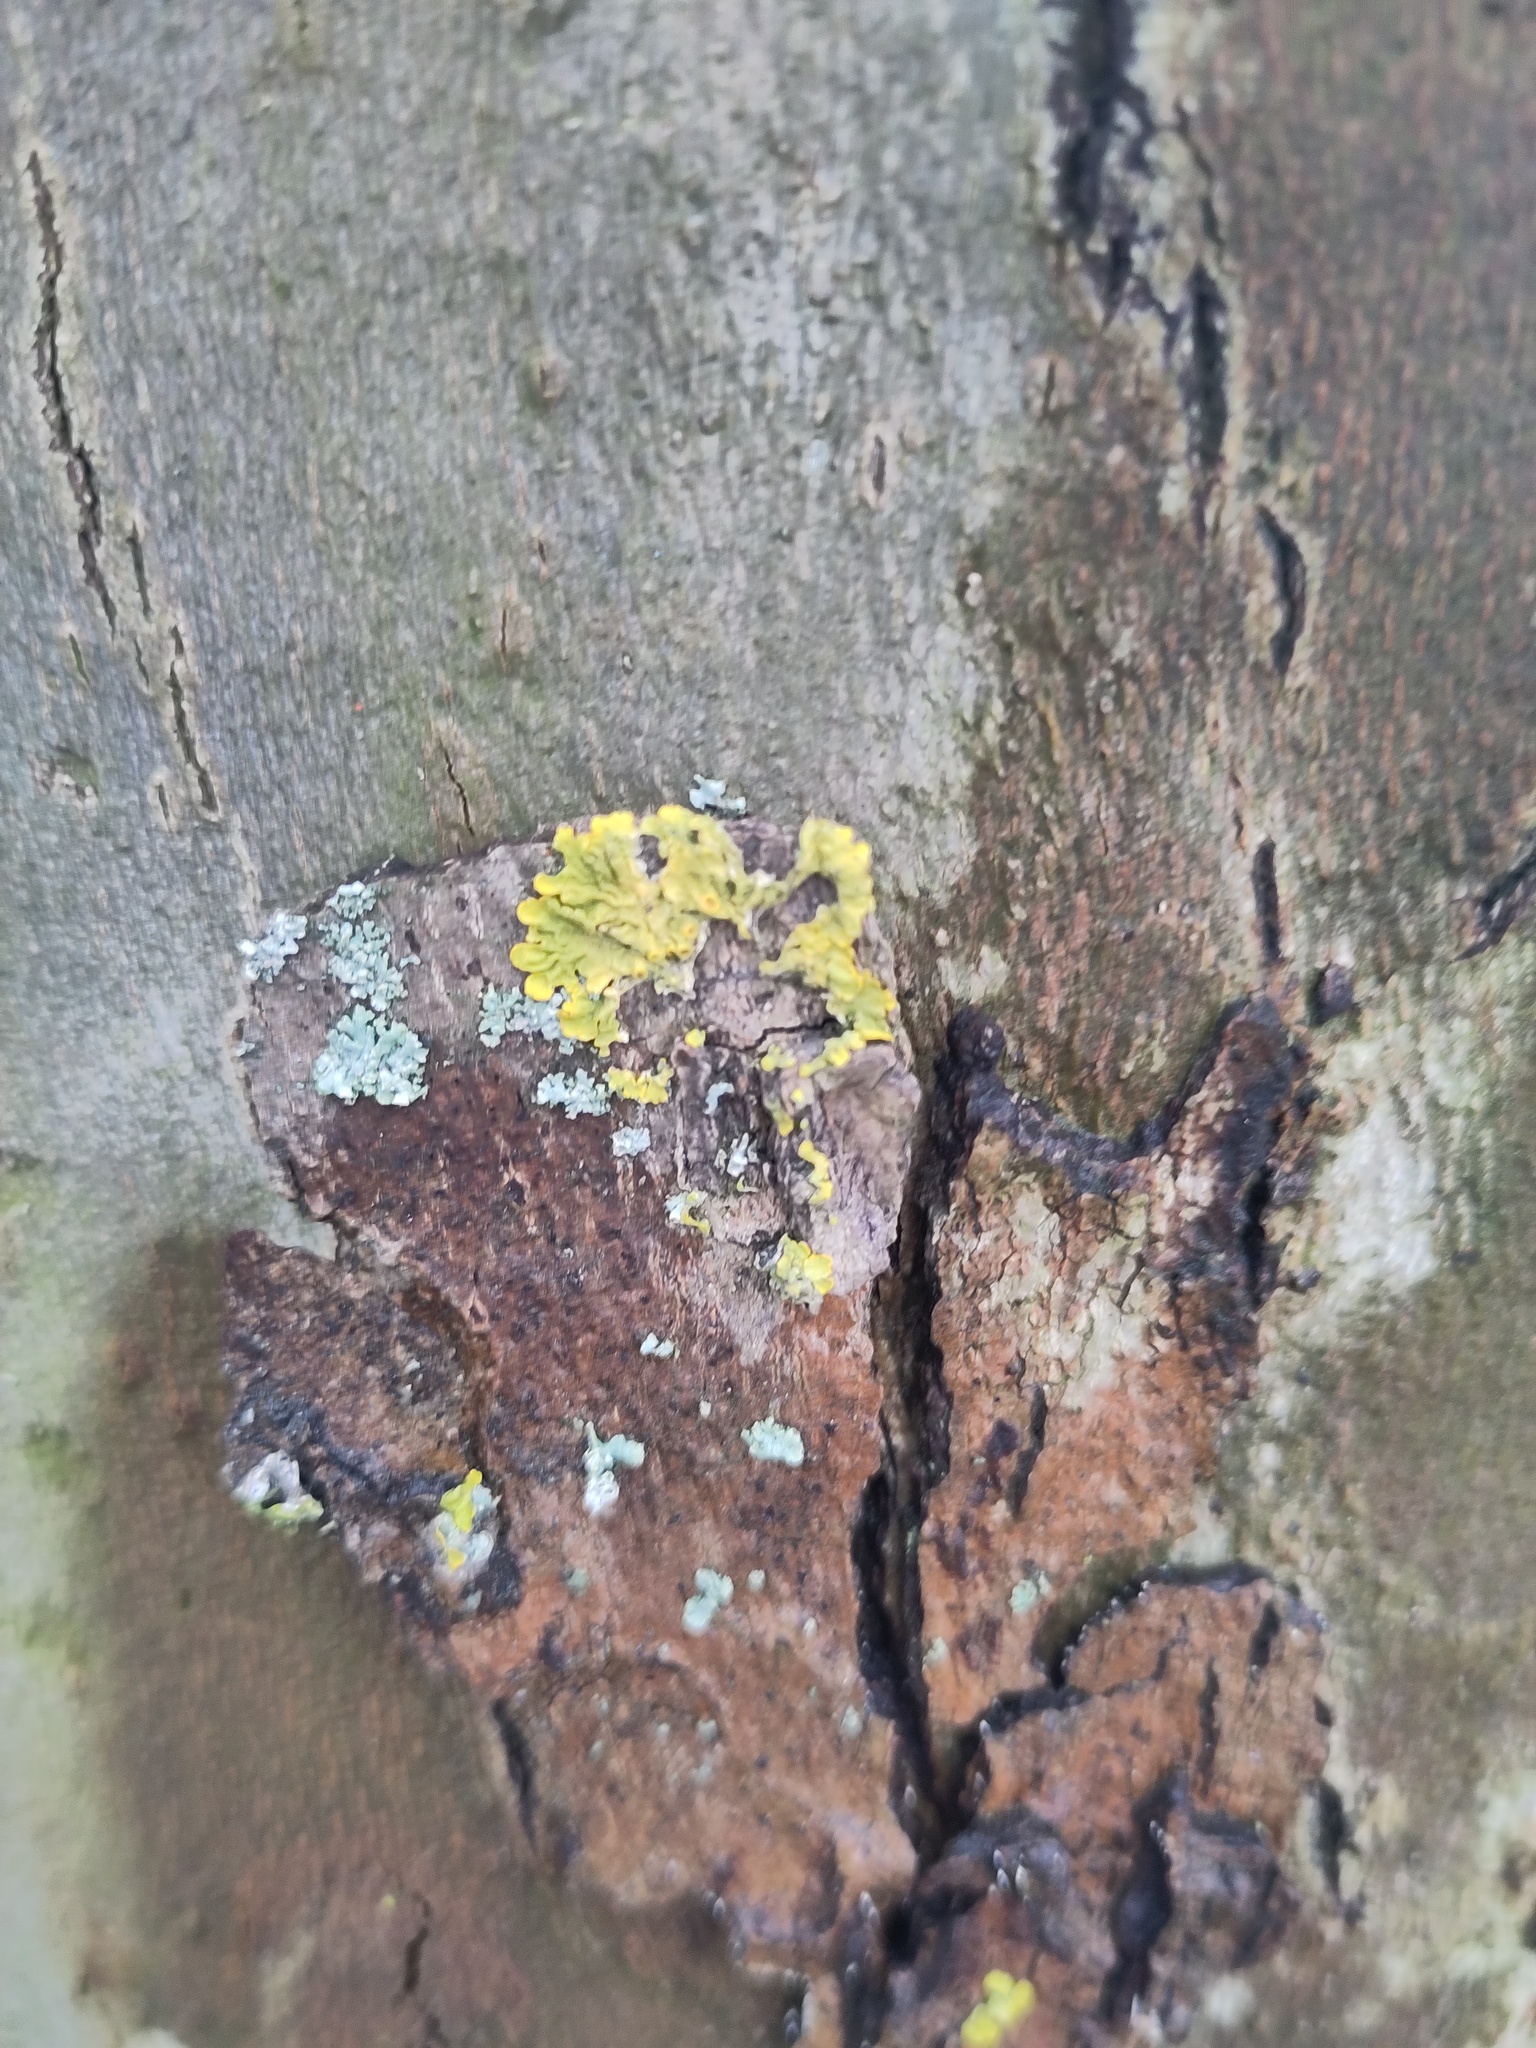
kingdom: Fungi
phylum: Ascomycota
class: Lecanoromycetes
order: Teloschistales
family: Teloschistaceae
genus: Xanthoria
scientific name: Xanthoria parietina
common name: Common orange lichen
